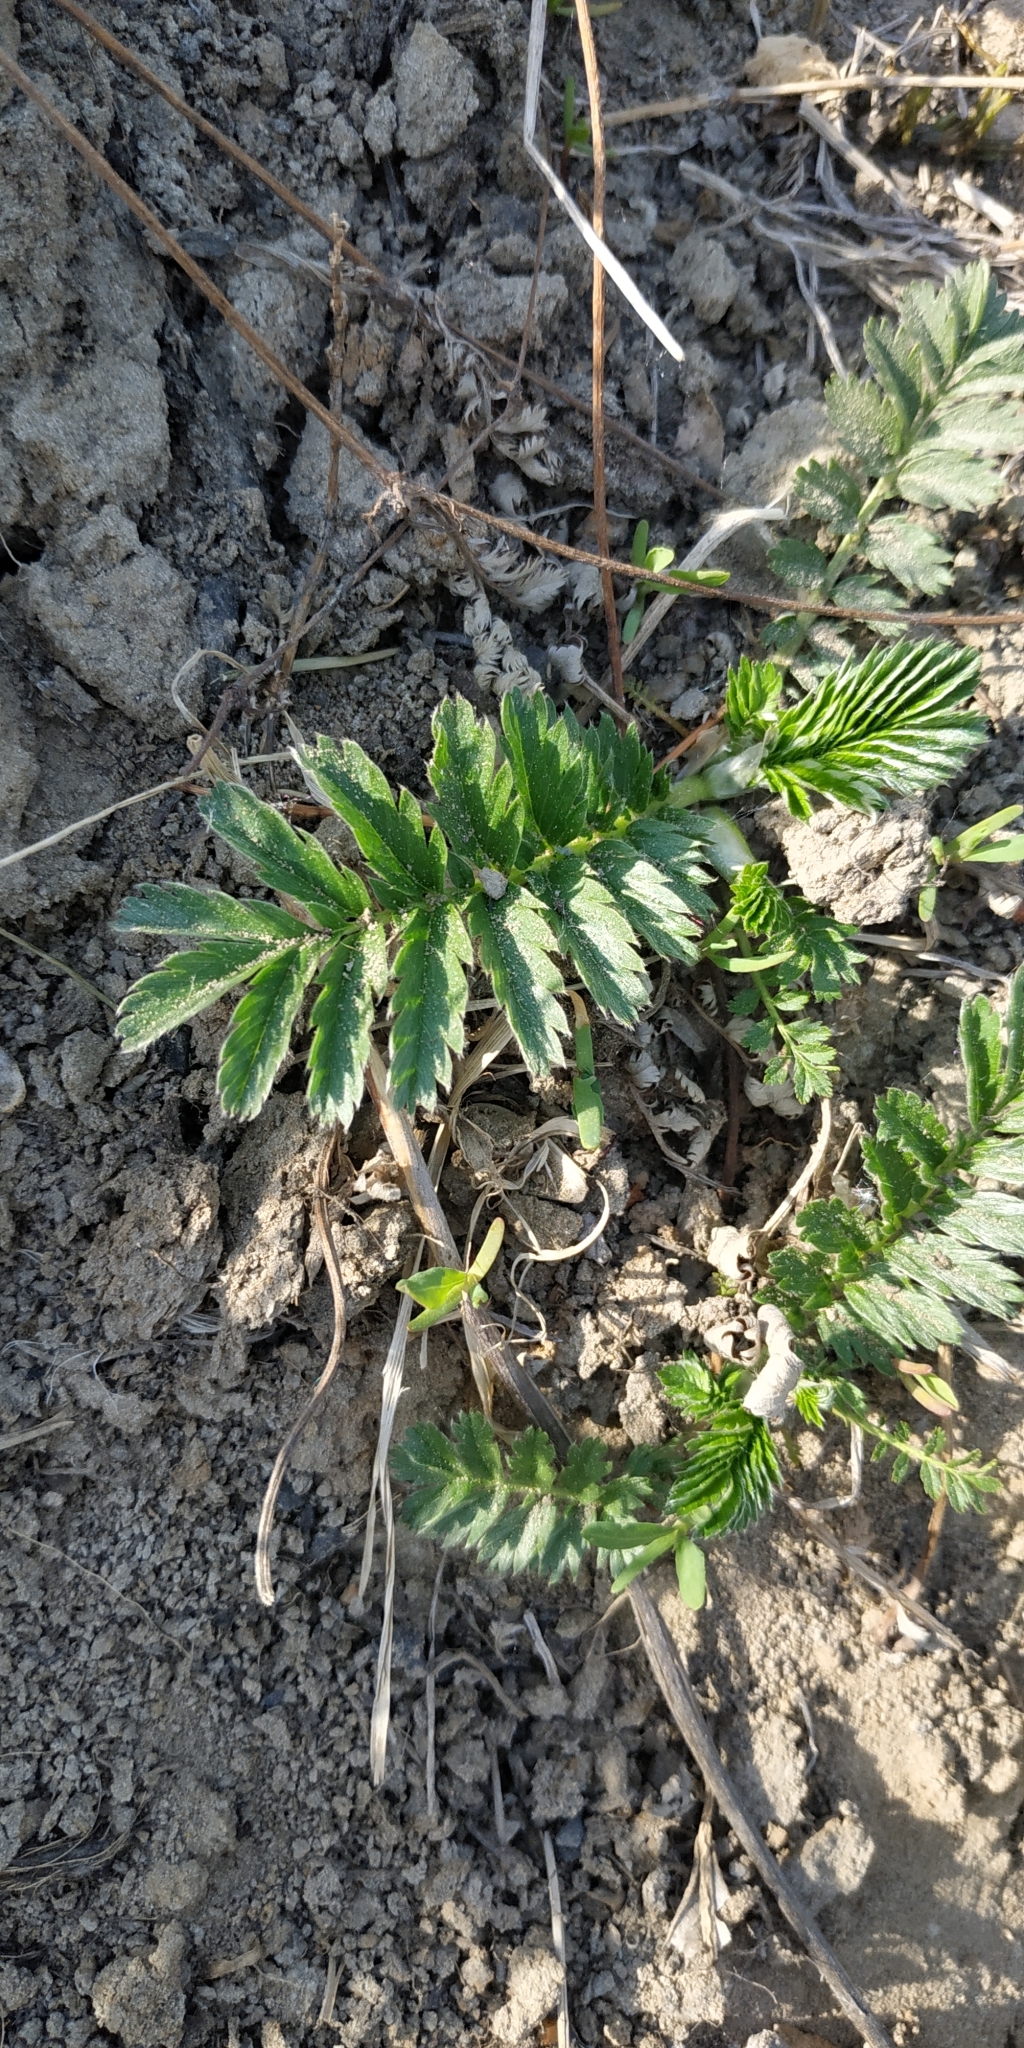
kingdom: Plantae
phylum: Tracheophyta
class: Magnoliopsida
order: Rosales
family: Rosaceae
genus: Argentina
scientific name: Argentina anserina
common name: Common silverweed
